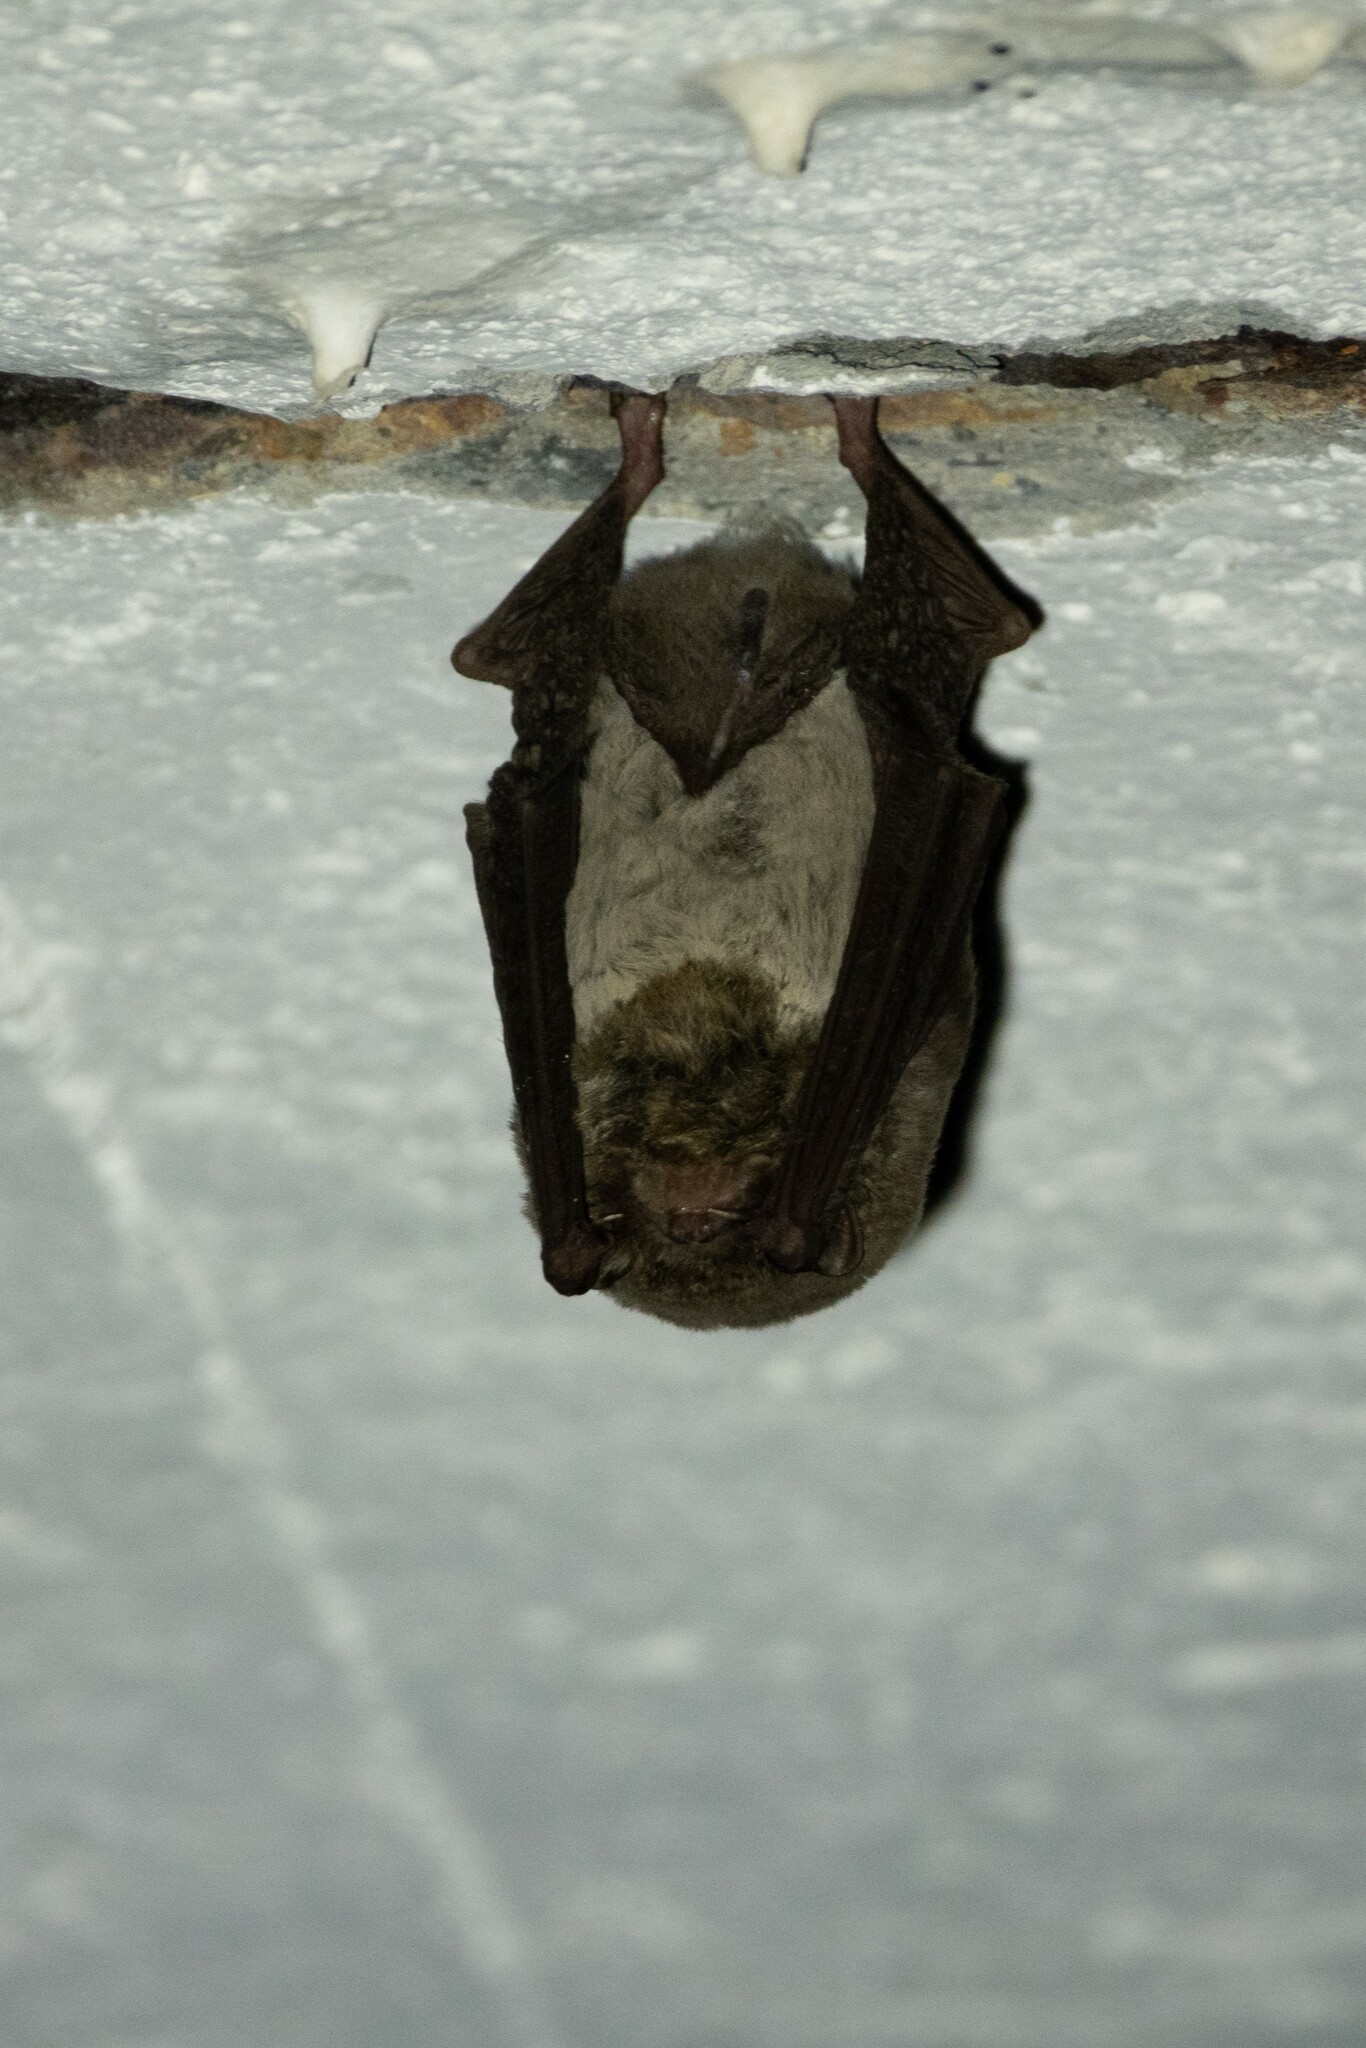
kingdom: Animalia
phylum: Chordata
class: Mammalia
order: Chiroptera
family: Miniopteridae
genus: Miniopterus
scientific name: Miniopterus schreibersii
